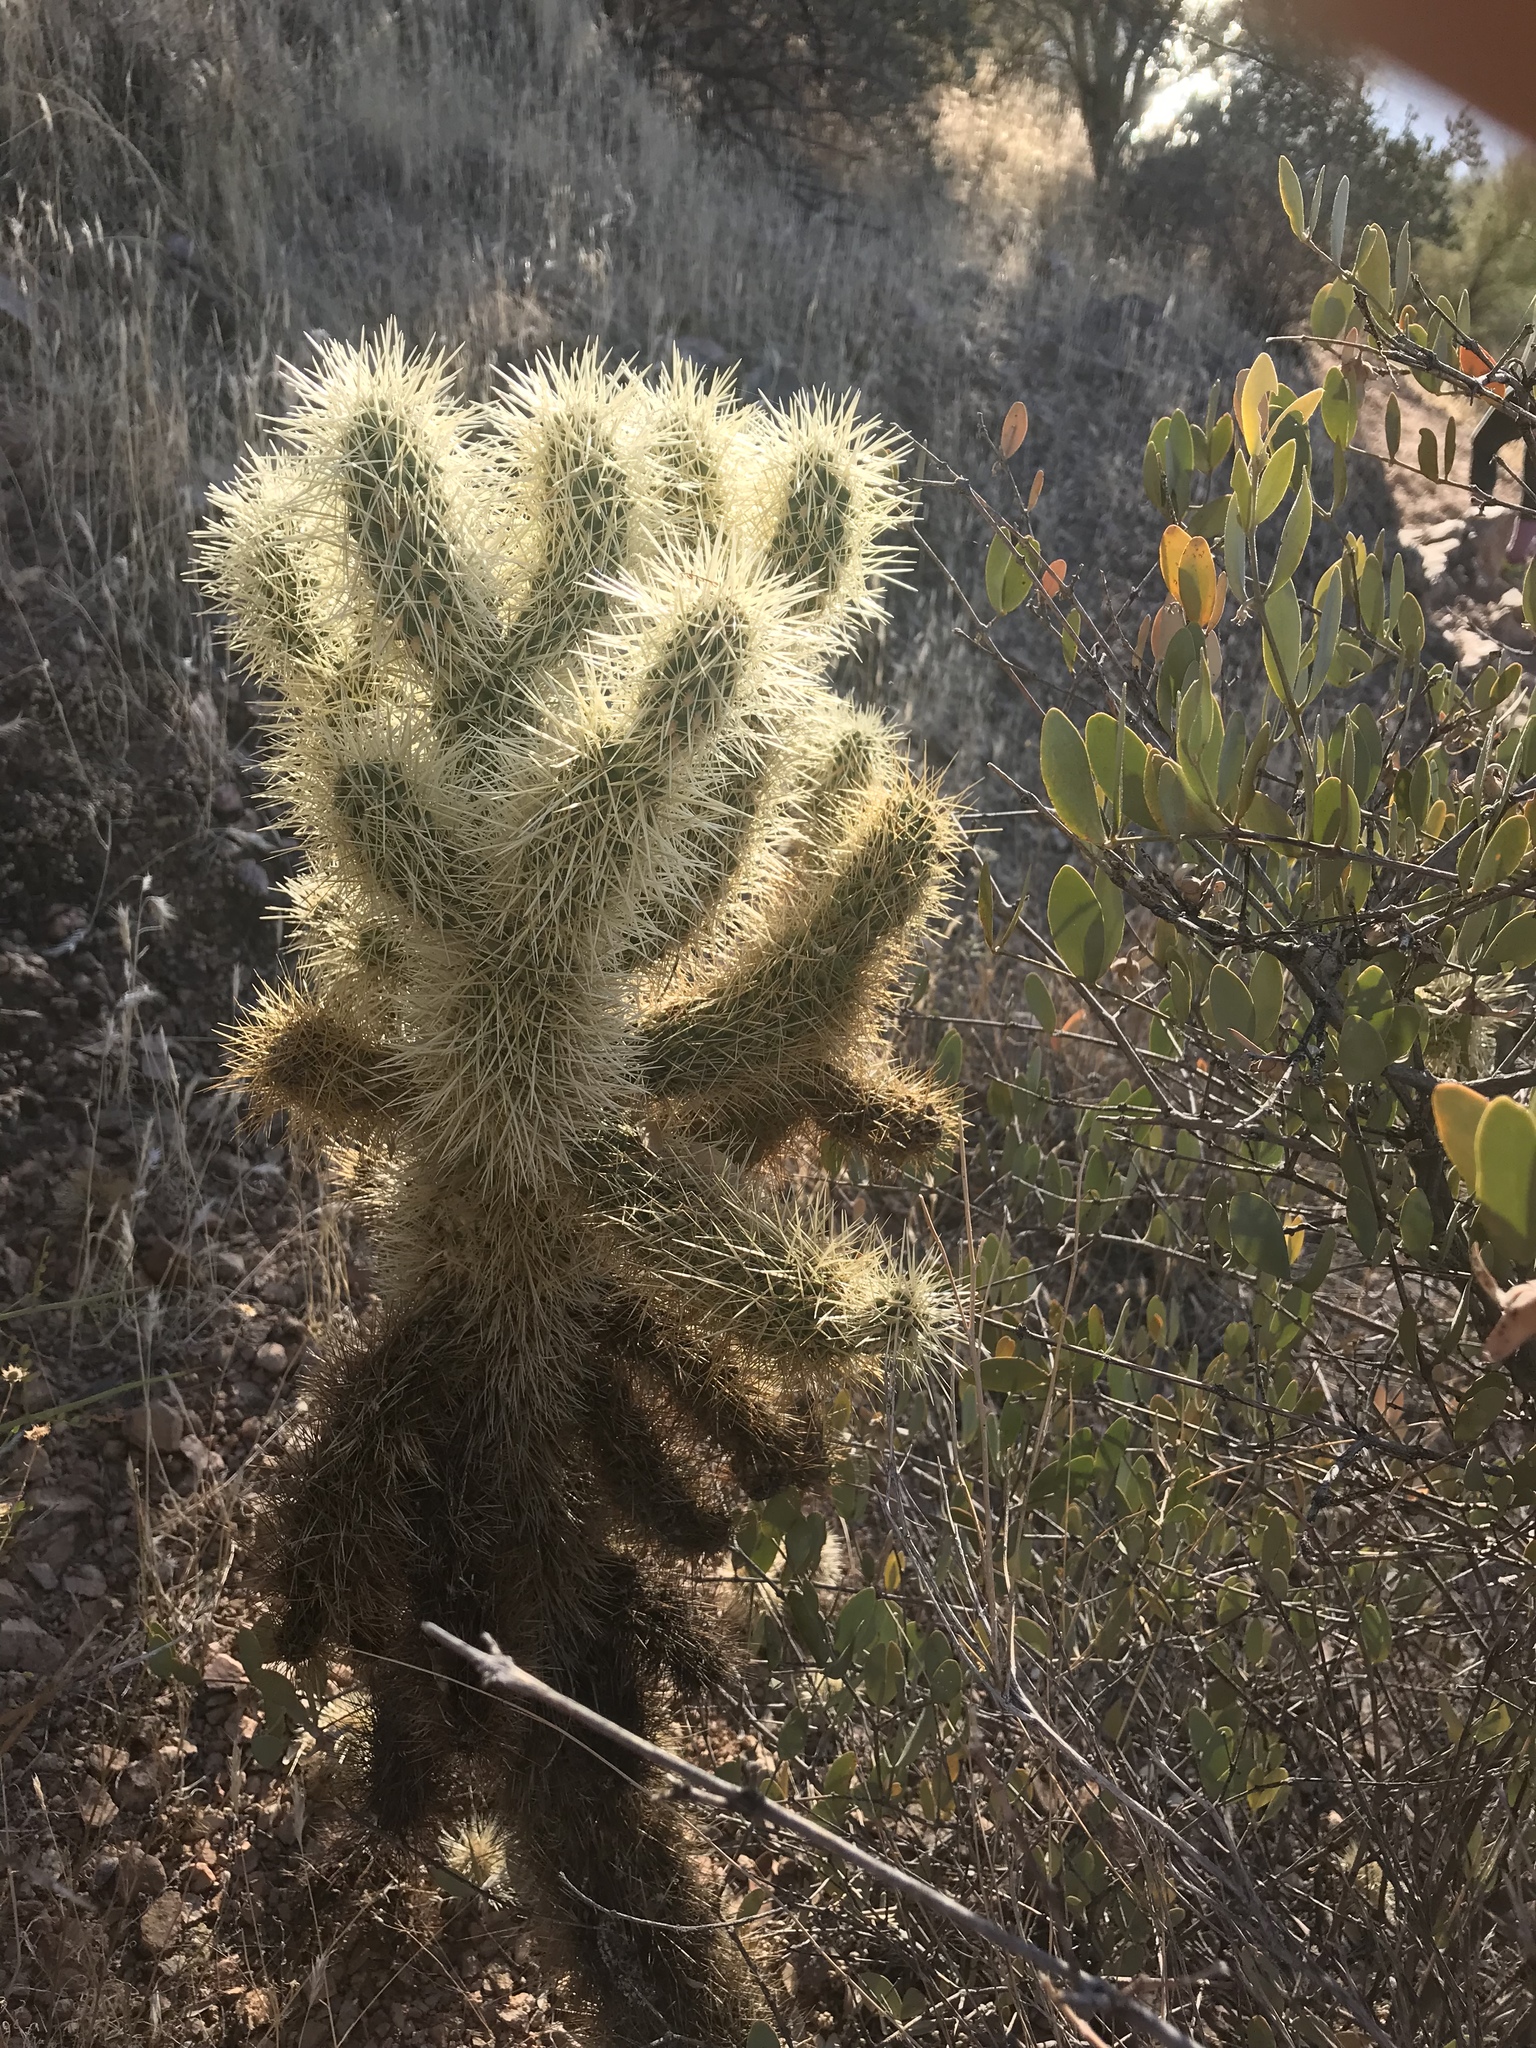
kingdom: Plantae
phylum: Tracheophyta
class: Magnoliopsida
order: Caryophyllales
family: Cactaceae
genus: Cylindropuntia
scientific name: Cylindropuntia fosbergii
